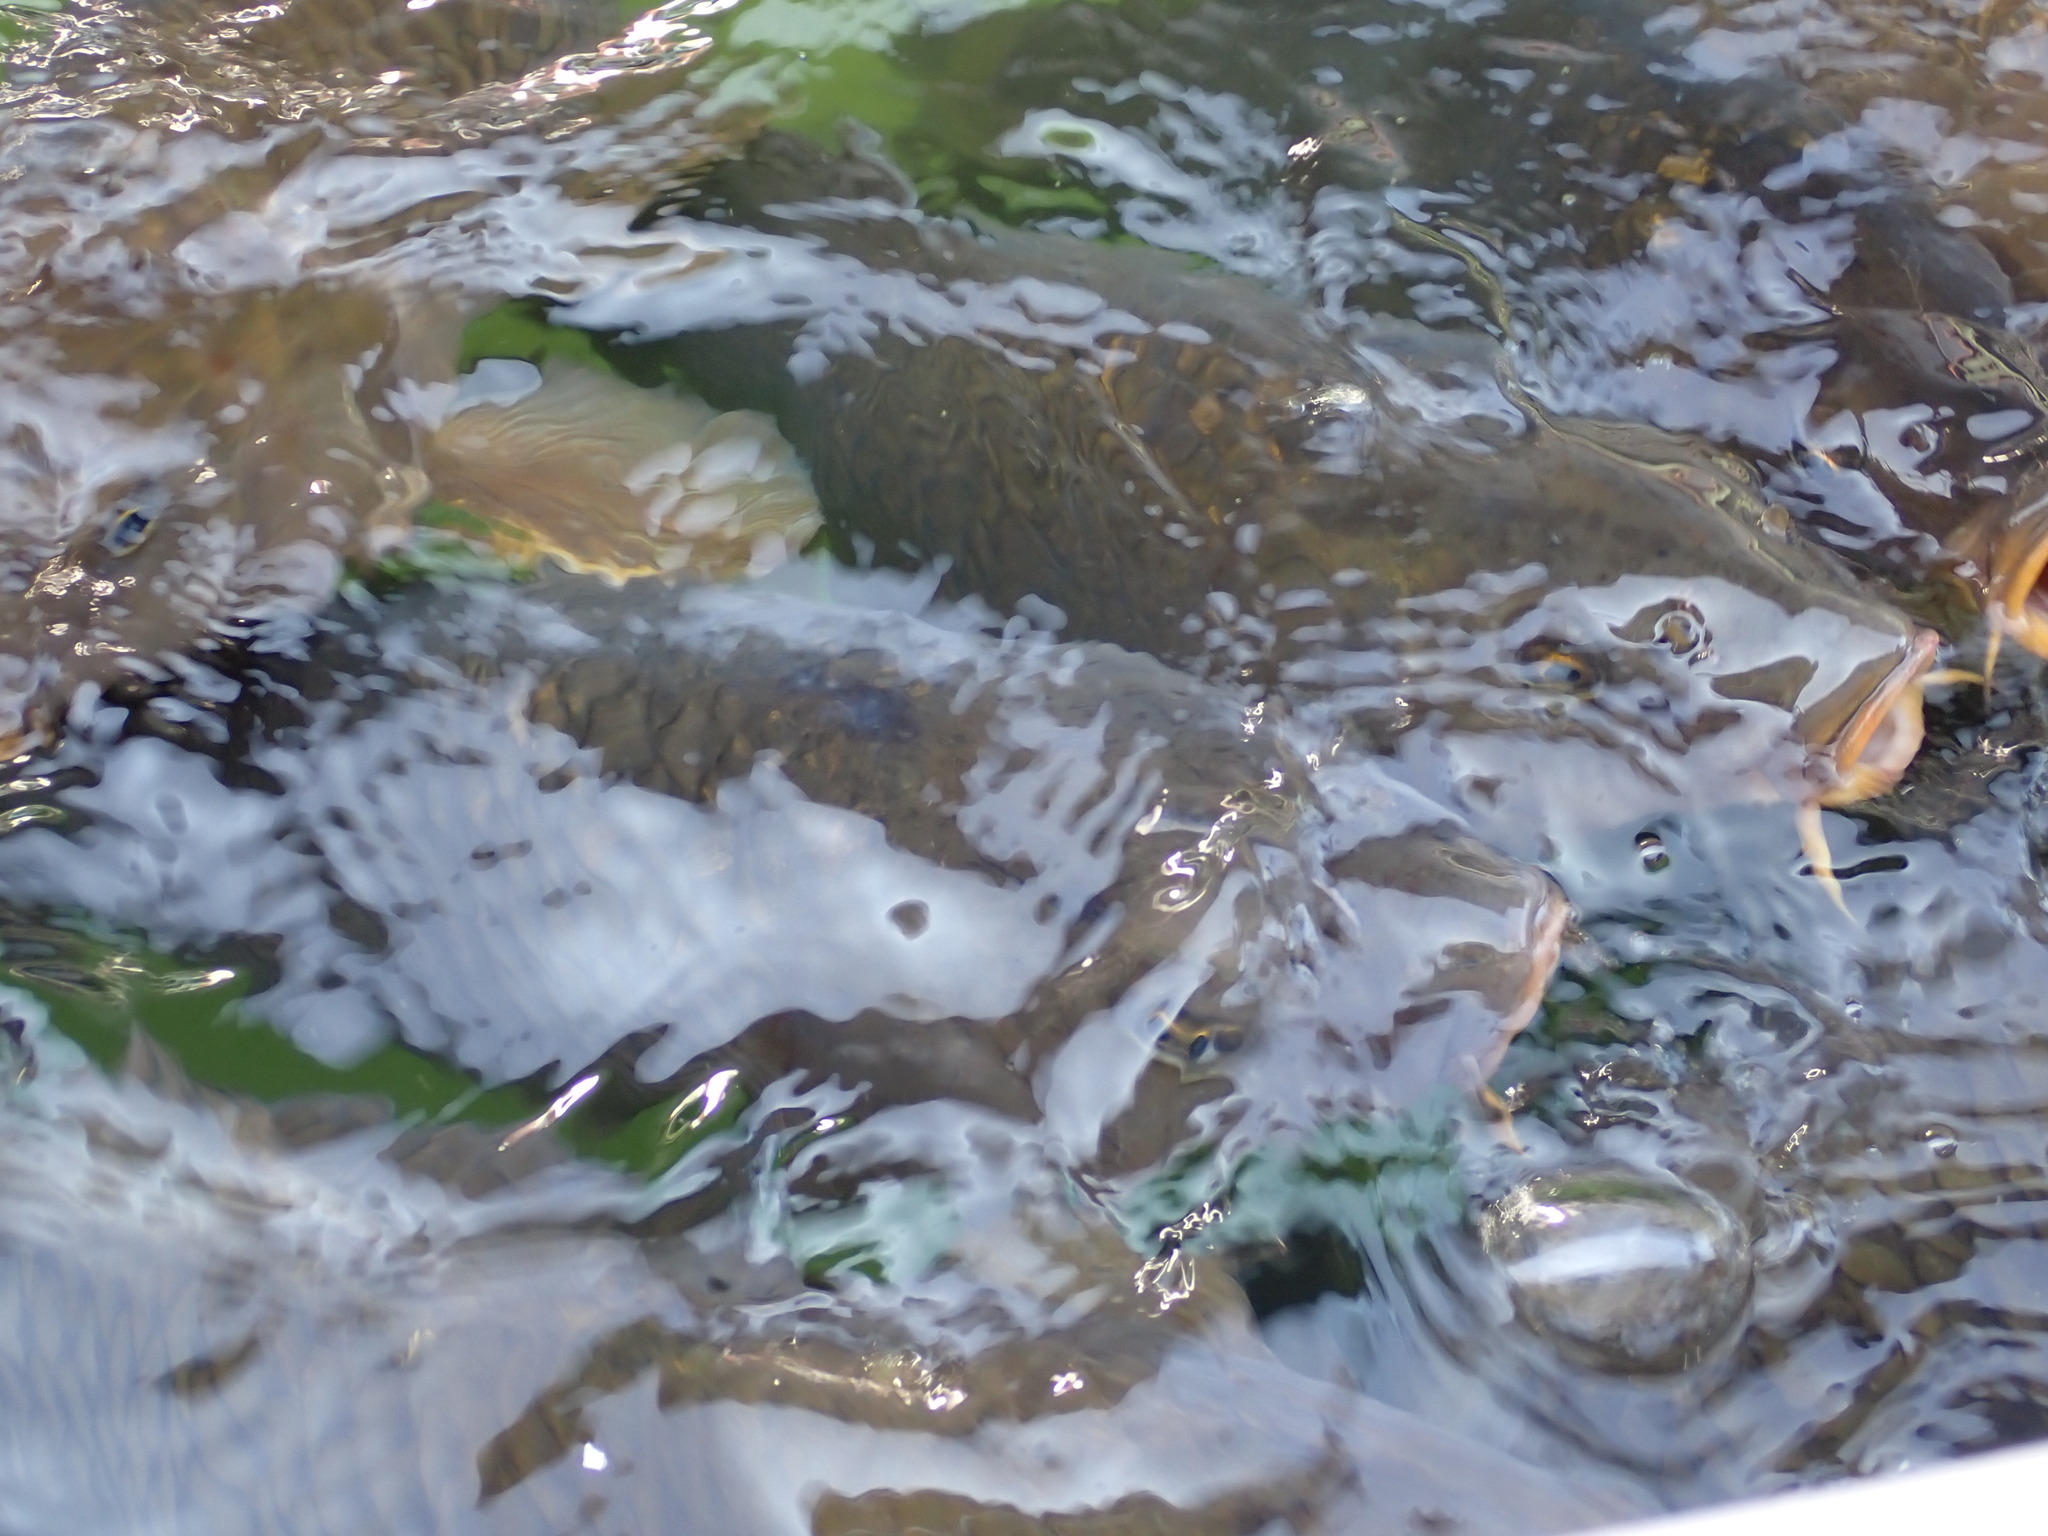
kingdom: Animalia
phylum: Chordata
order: Cypriniformes
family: Cyprinidae
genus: Cyprinus
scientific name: Cyprinus carpio
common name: Common carp
